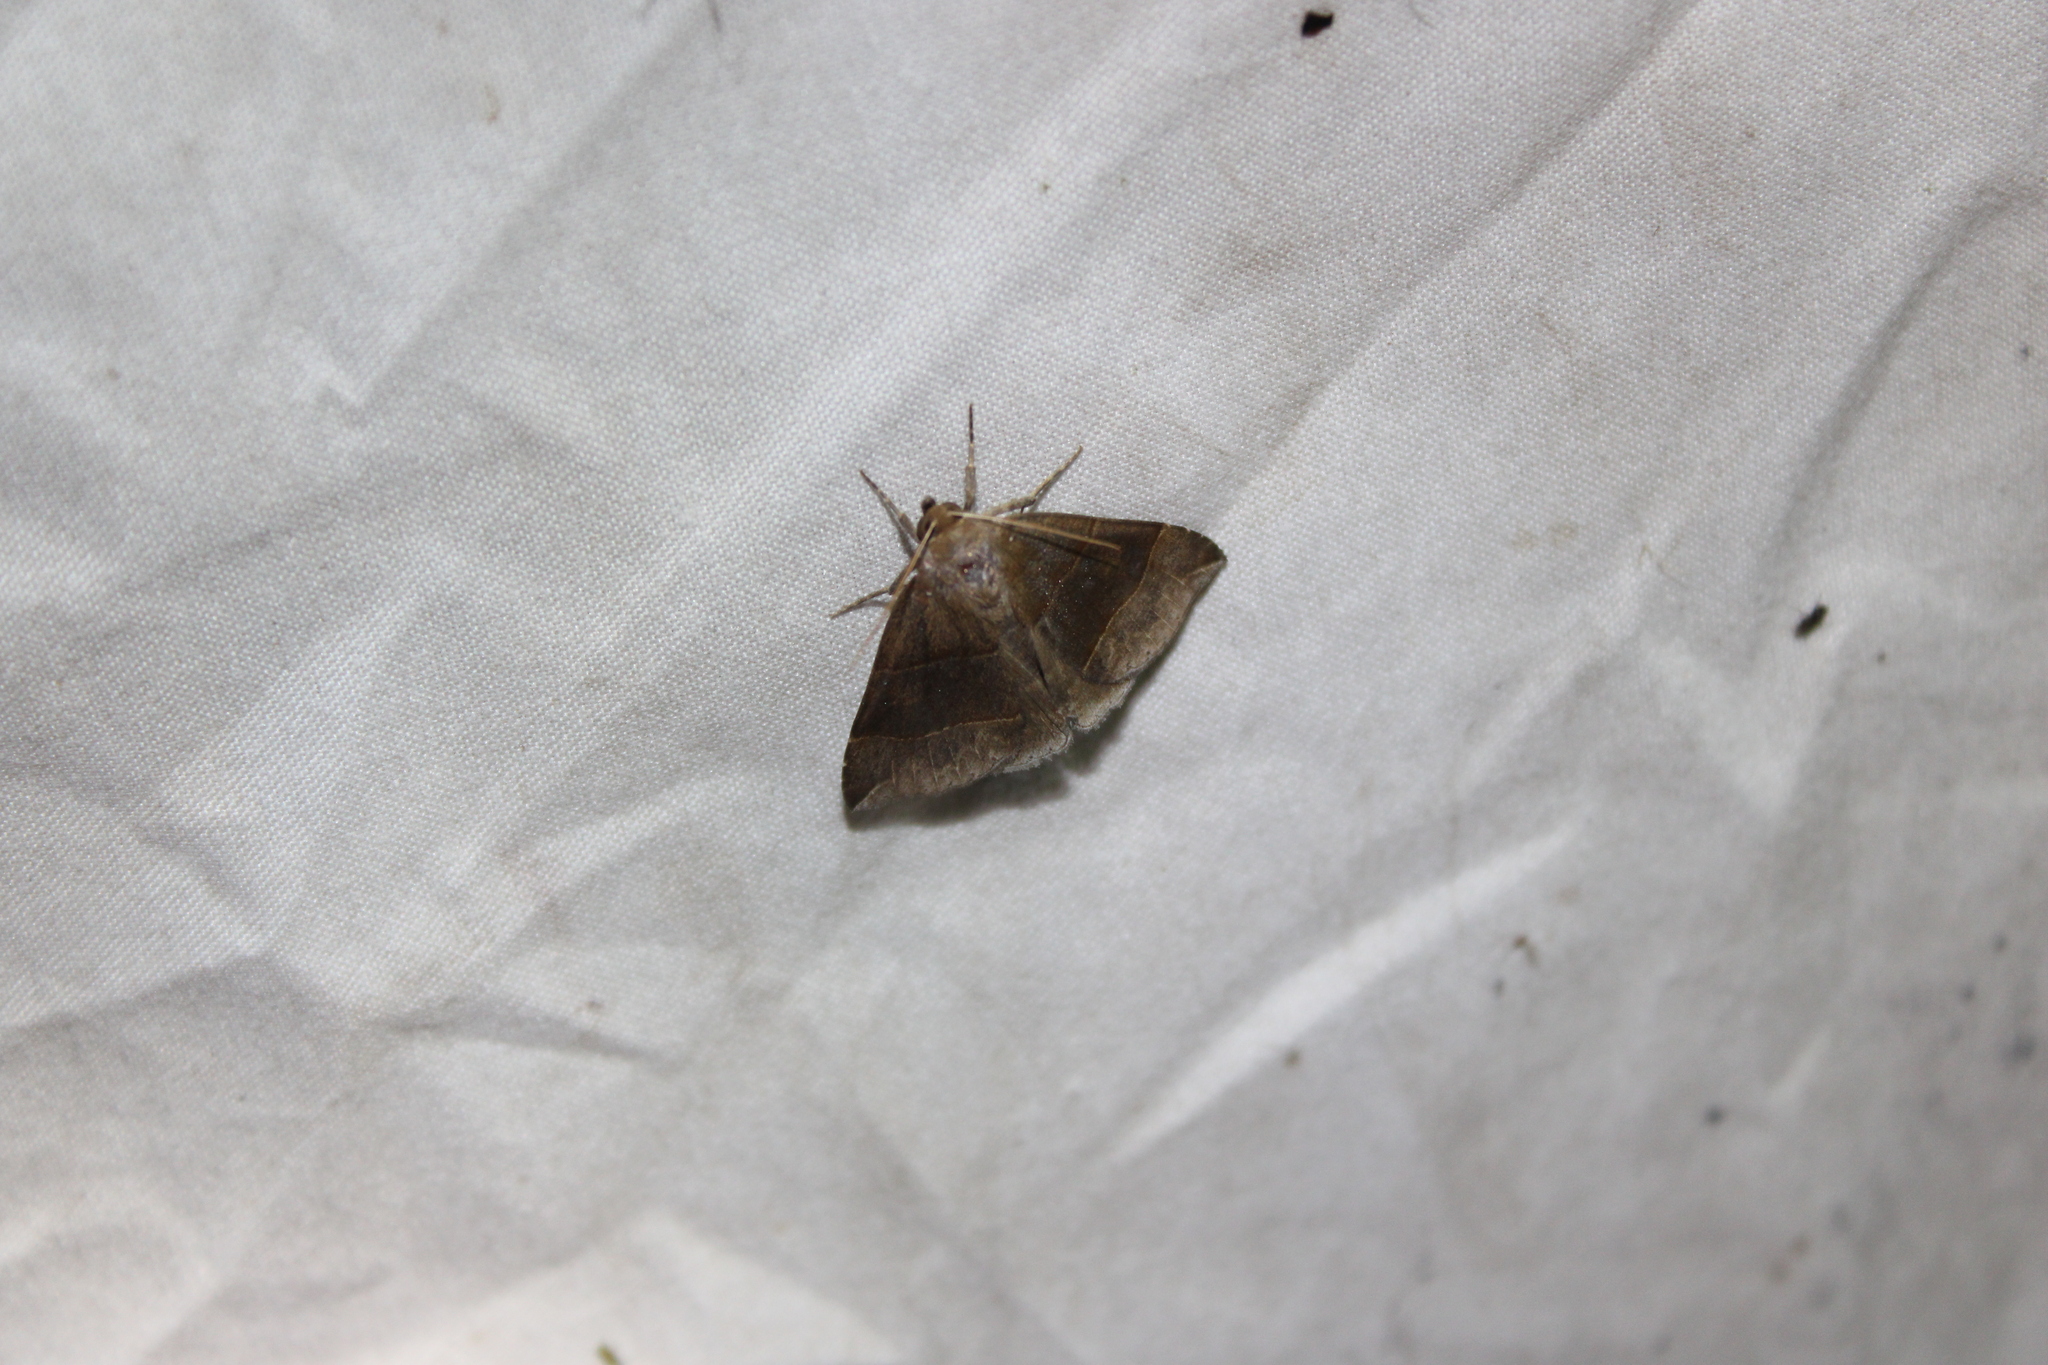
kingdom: Animalia
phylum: Arthropoda
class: Insecta
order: Lepidoptera
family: Erebidae
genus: Parallelia
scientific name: Parallelia bistriaris
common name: Maple looper moth
